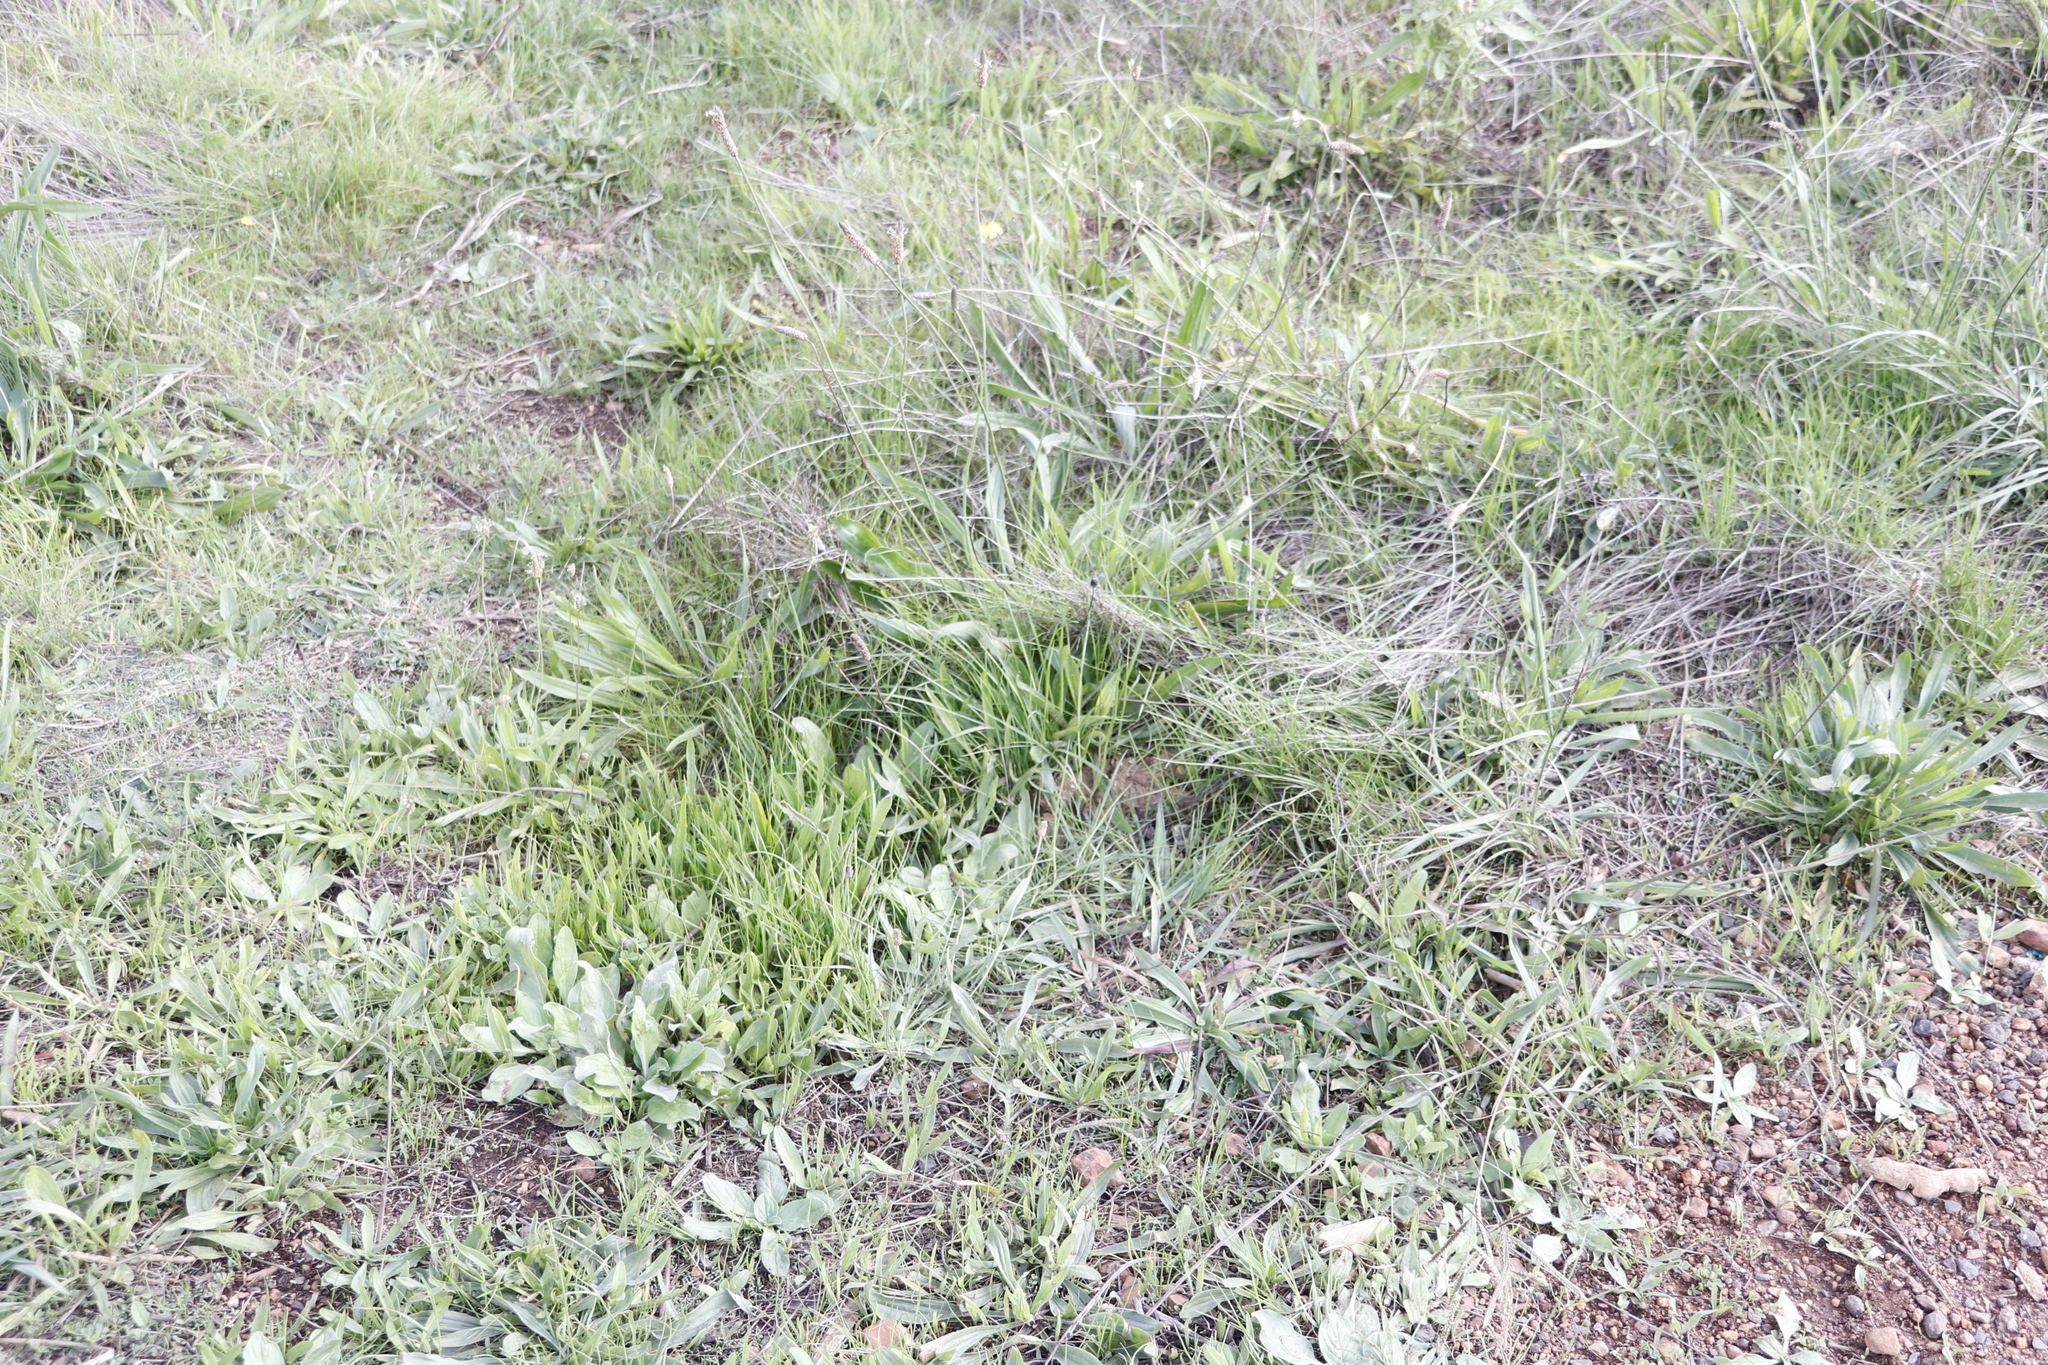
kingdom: Plantae
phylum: Tracheophyta
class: Magnoliopsida
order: Lamiales
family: Plantaginaceae
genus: Plantago
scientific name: Plantago lanceolata
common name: Ribwort plantain
